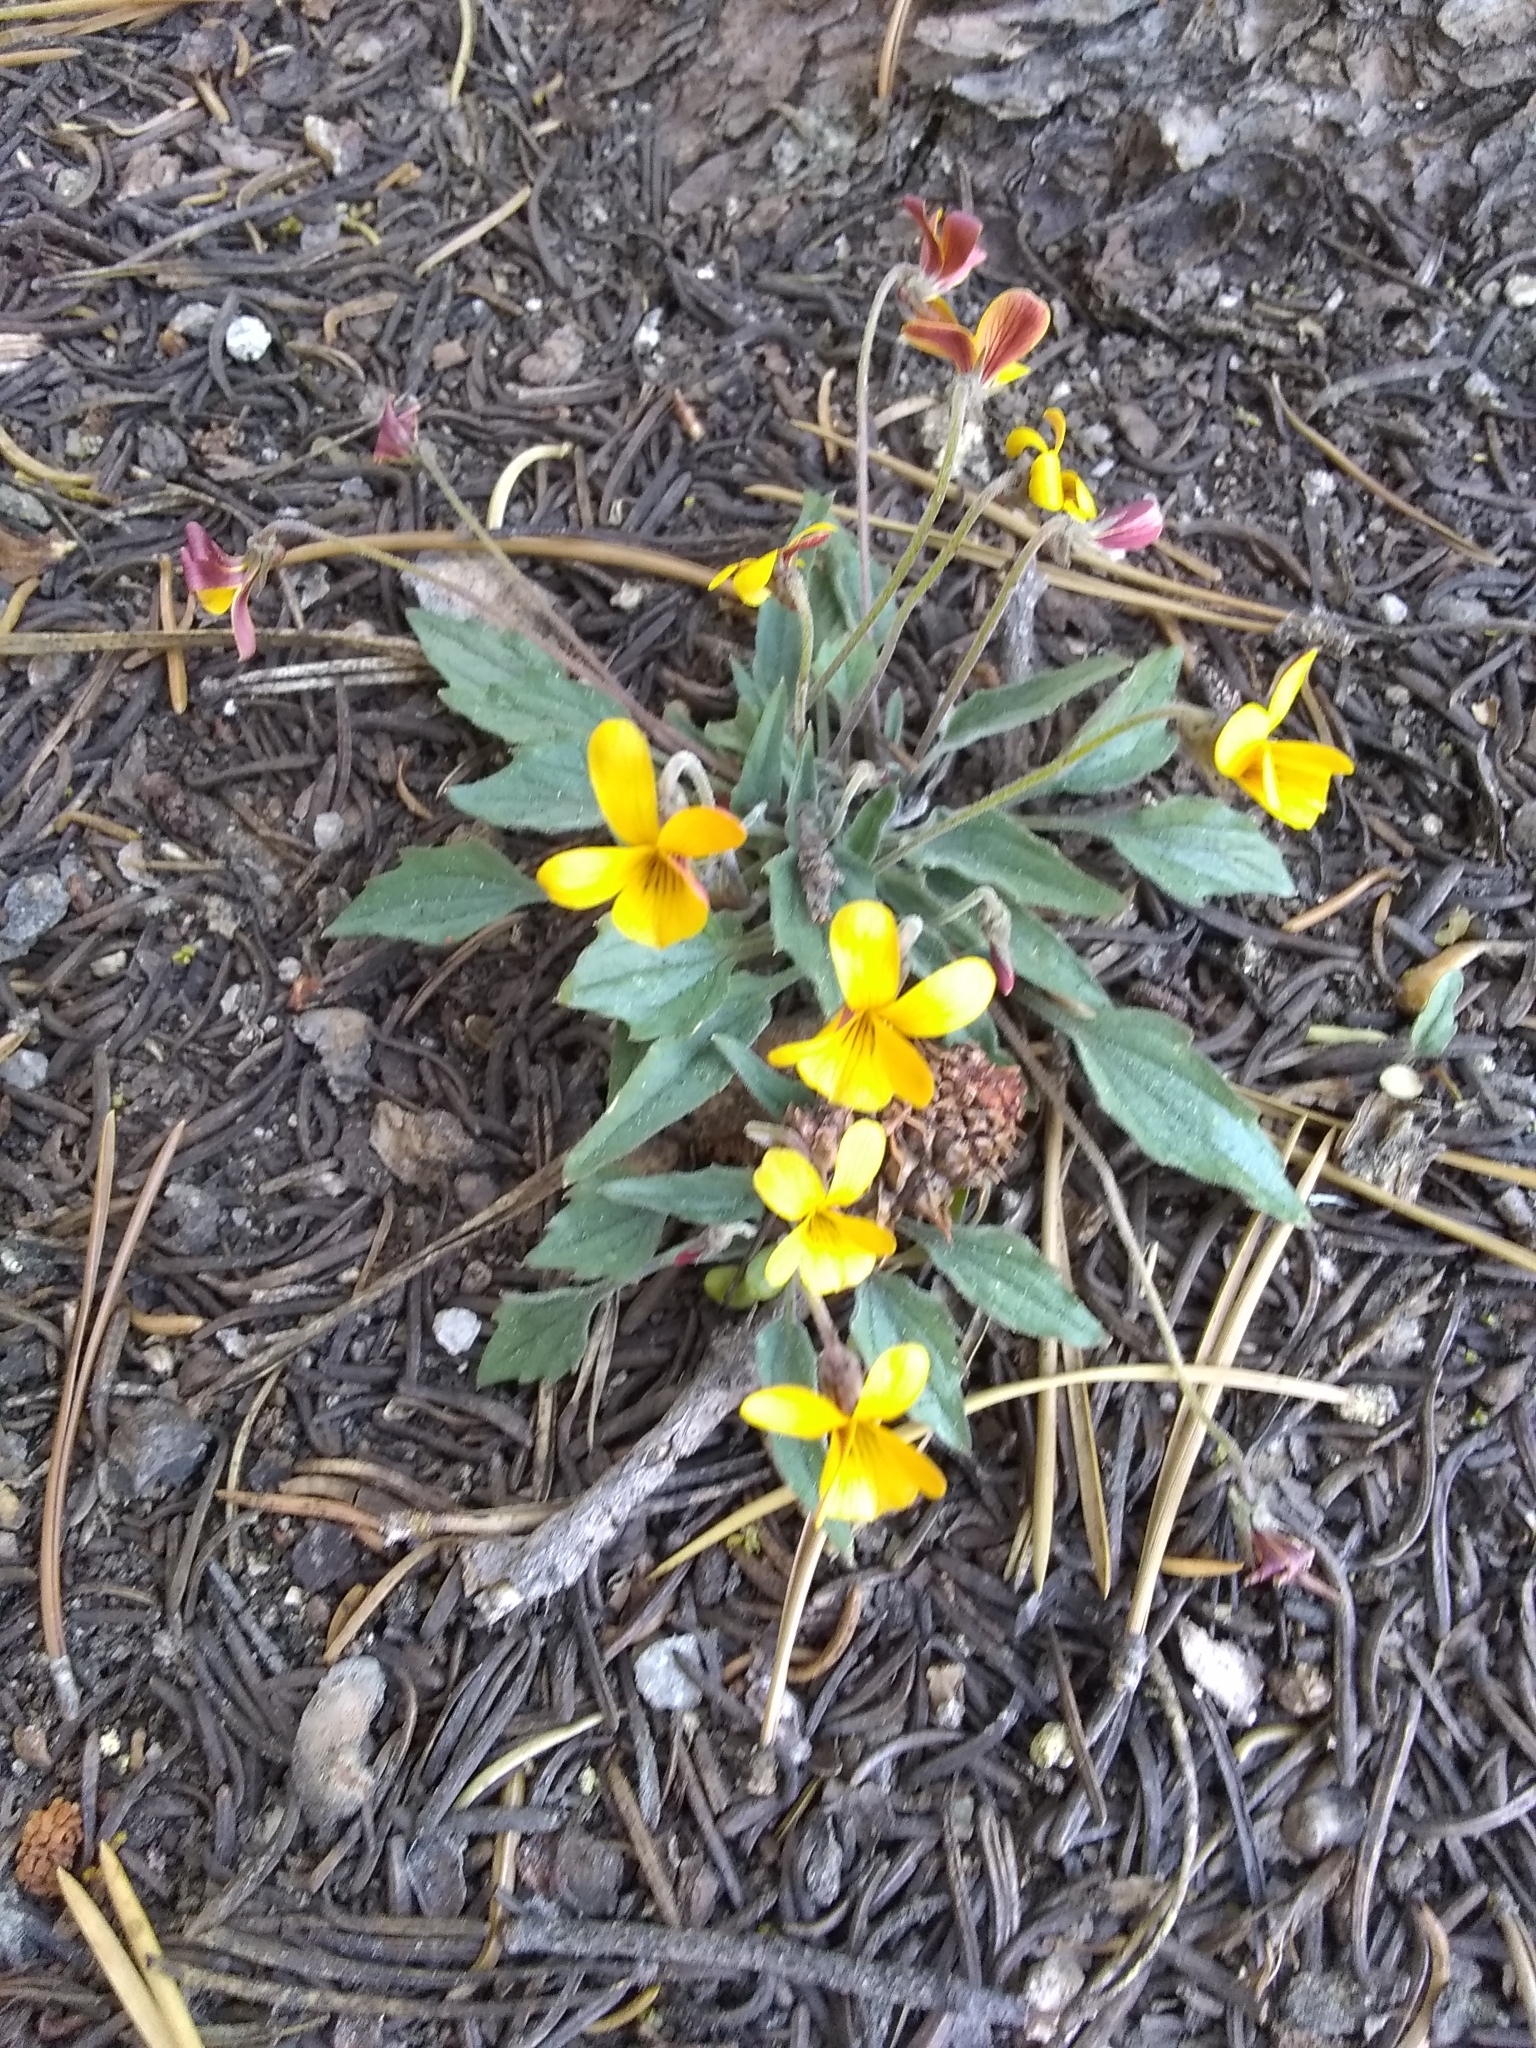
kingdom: Plantae
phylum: Tracheophyta
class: Magnoliopsida
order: Malpighiales
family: Violaceae
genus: Viola
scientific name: Viola pinetorum
